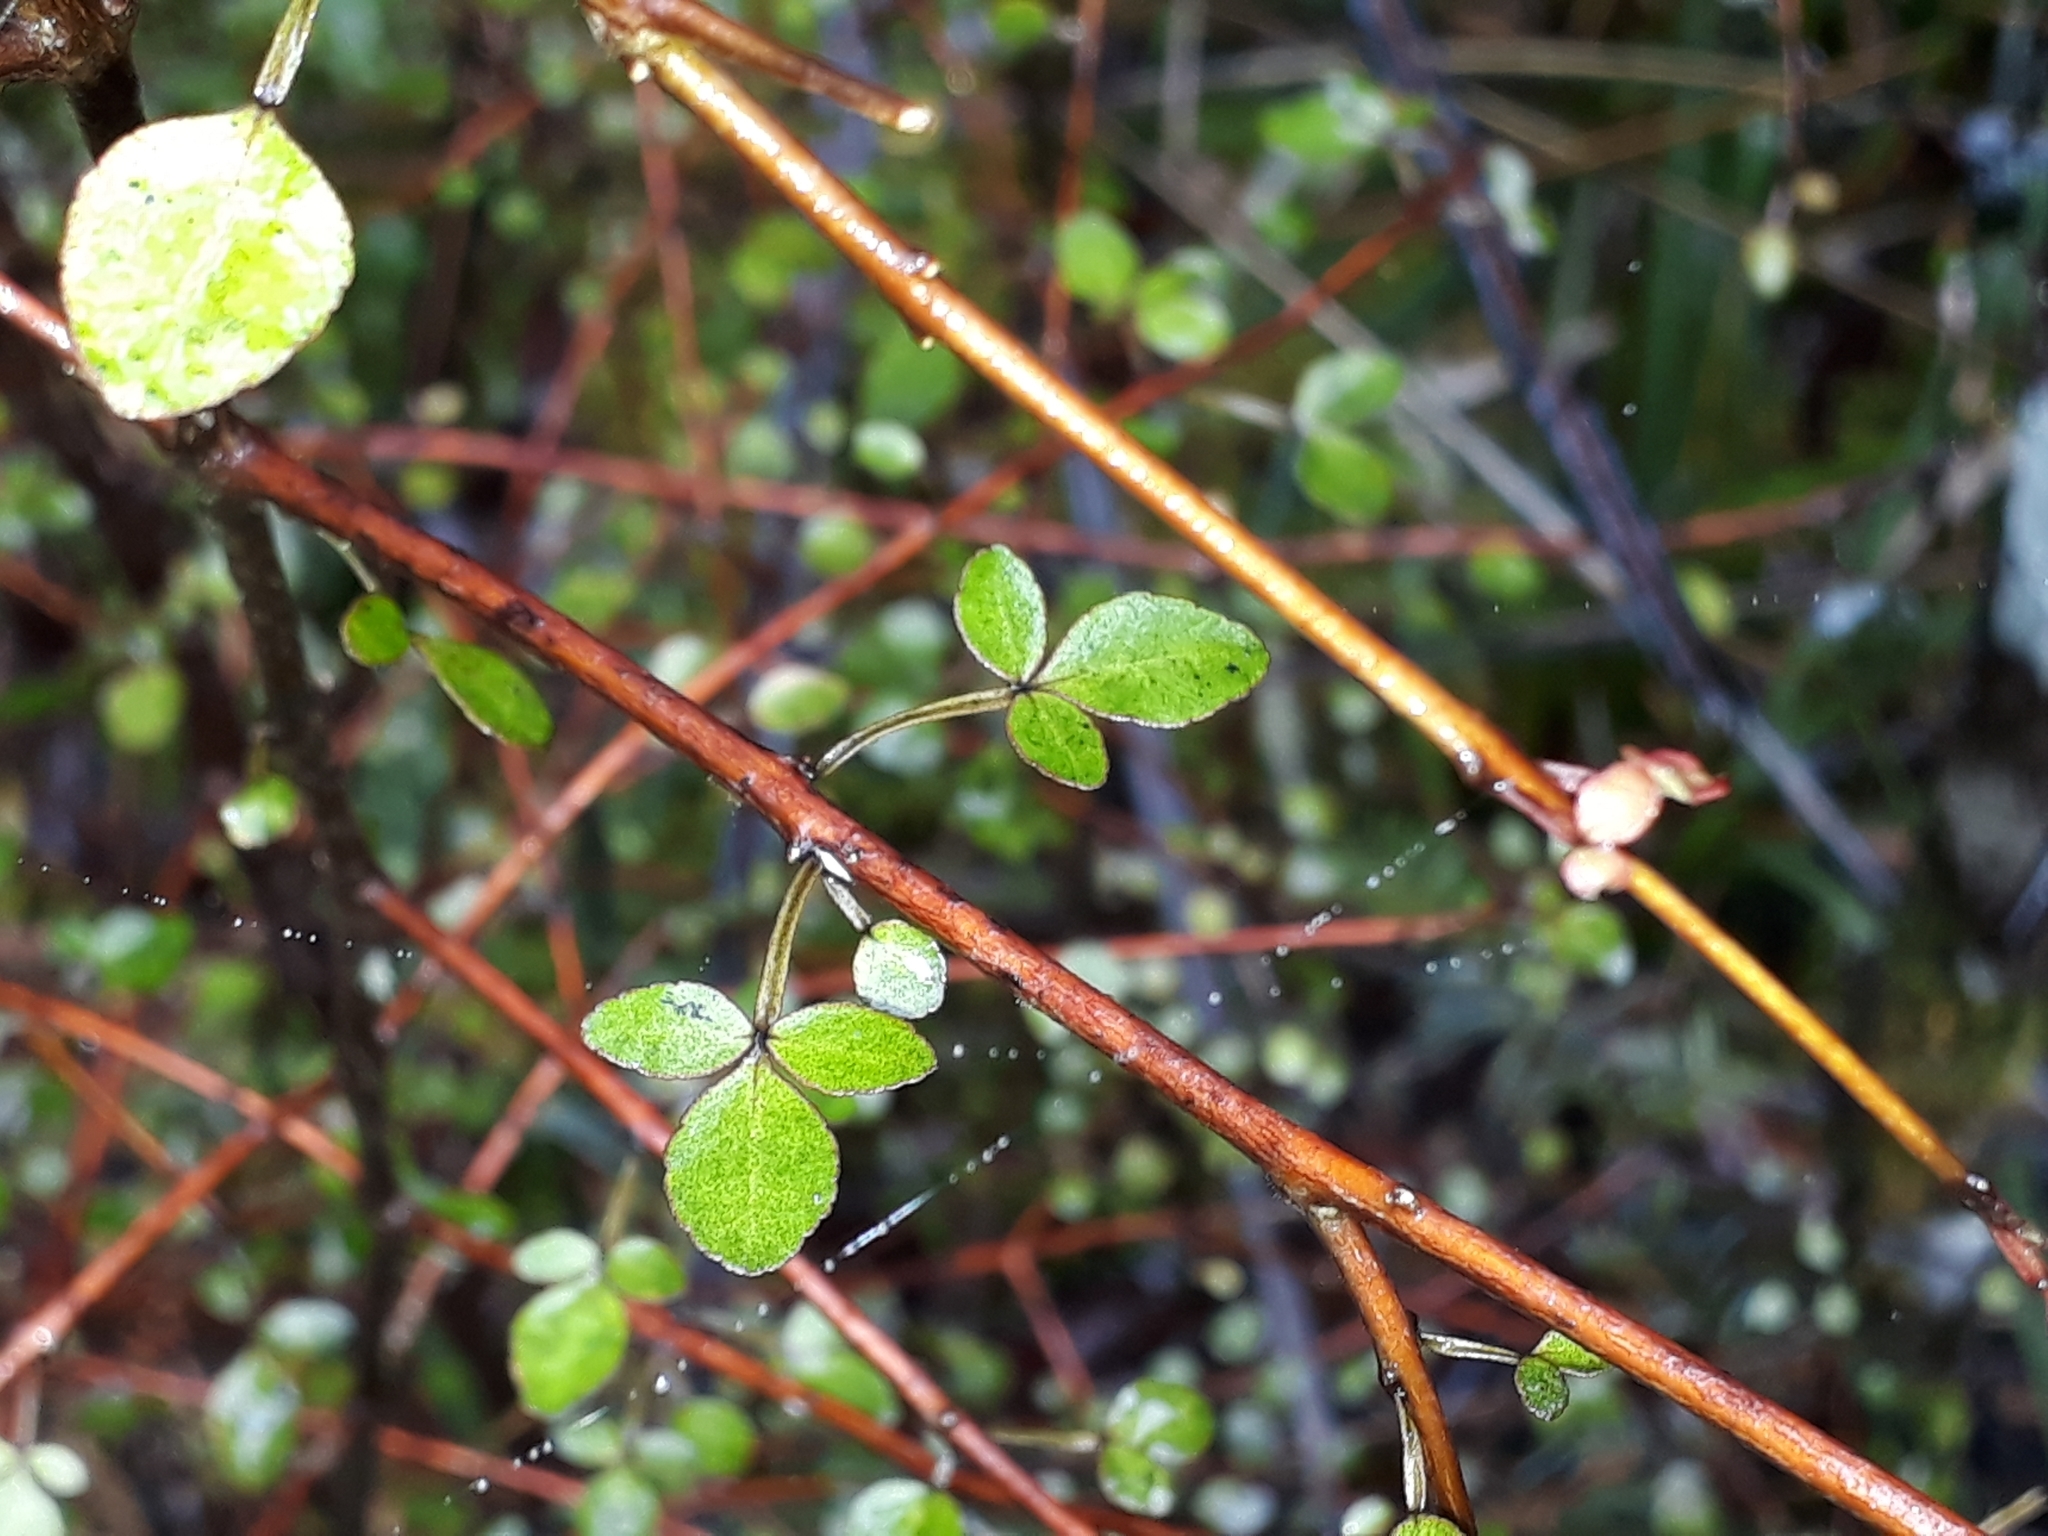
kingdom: Plantae
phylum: Tracheophyta
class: Magnoliopsida
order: Sapindales
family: Rutaceae
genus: Melicope
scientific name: Melicope simplex
